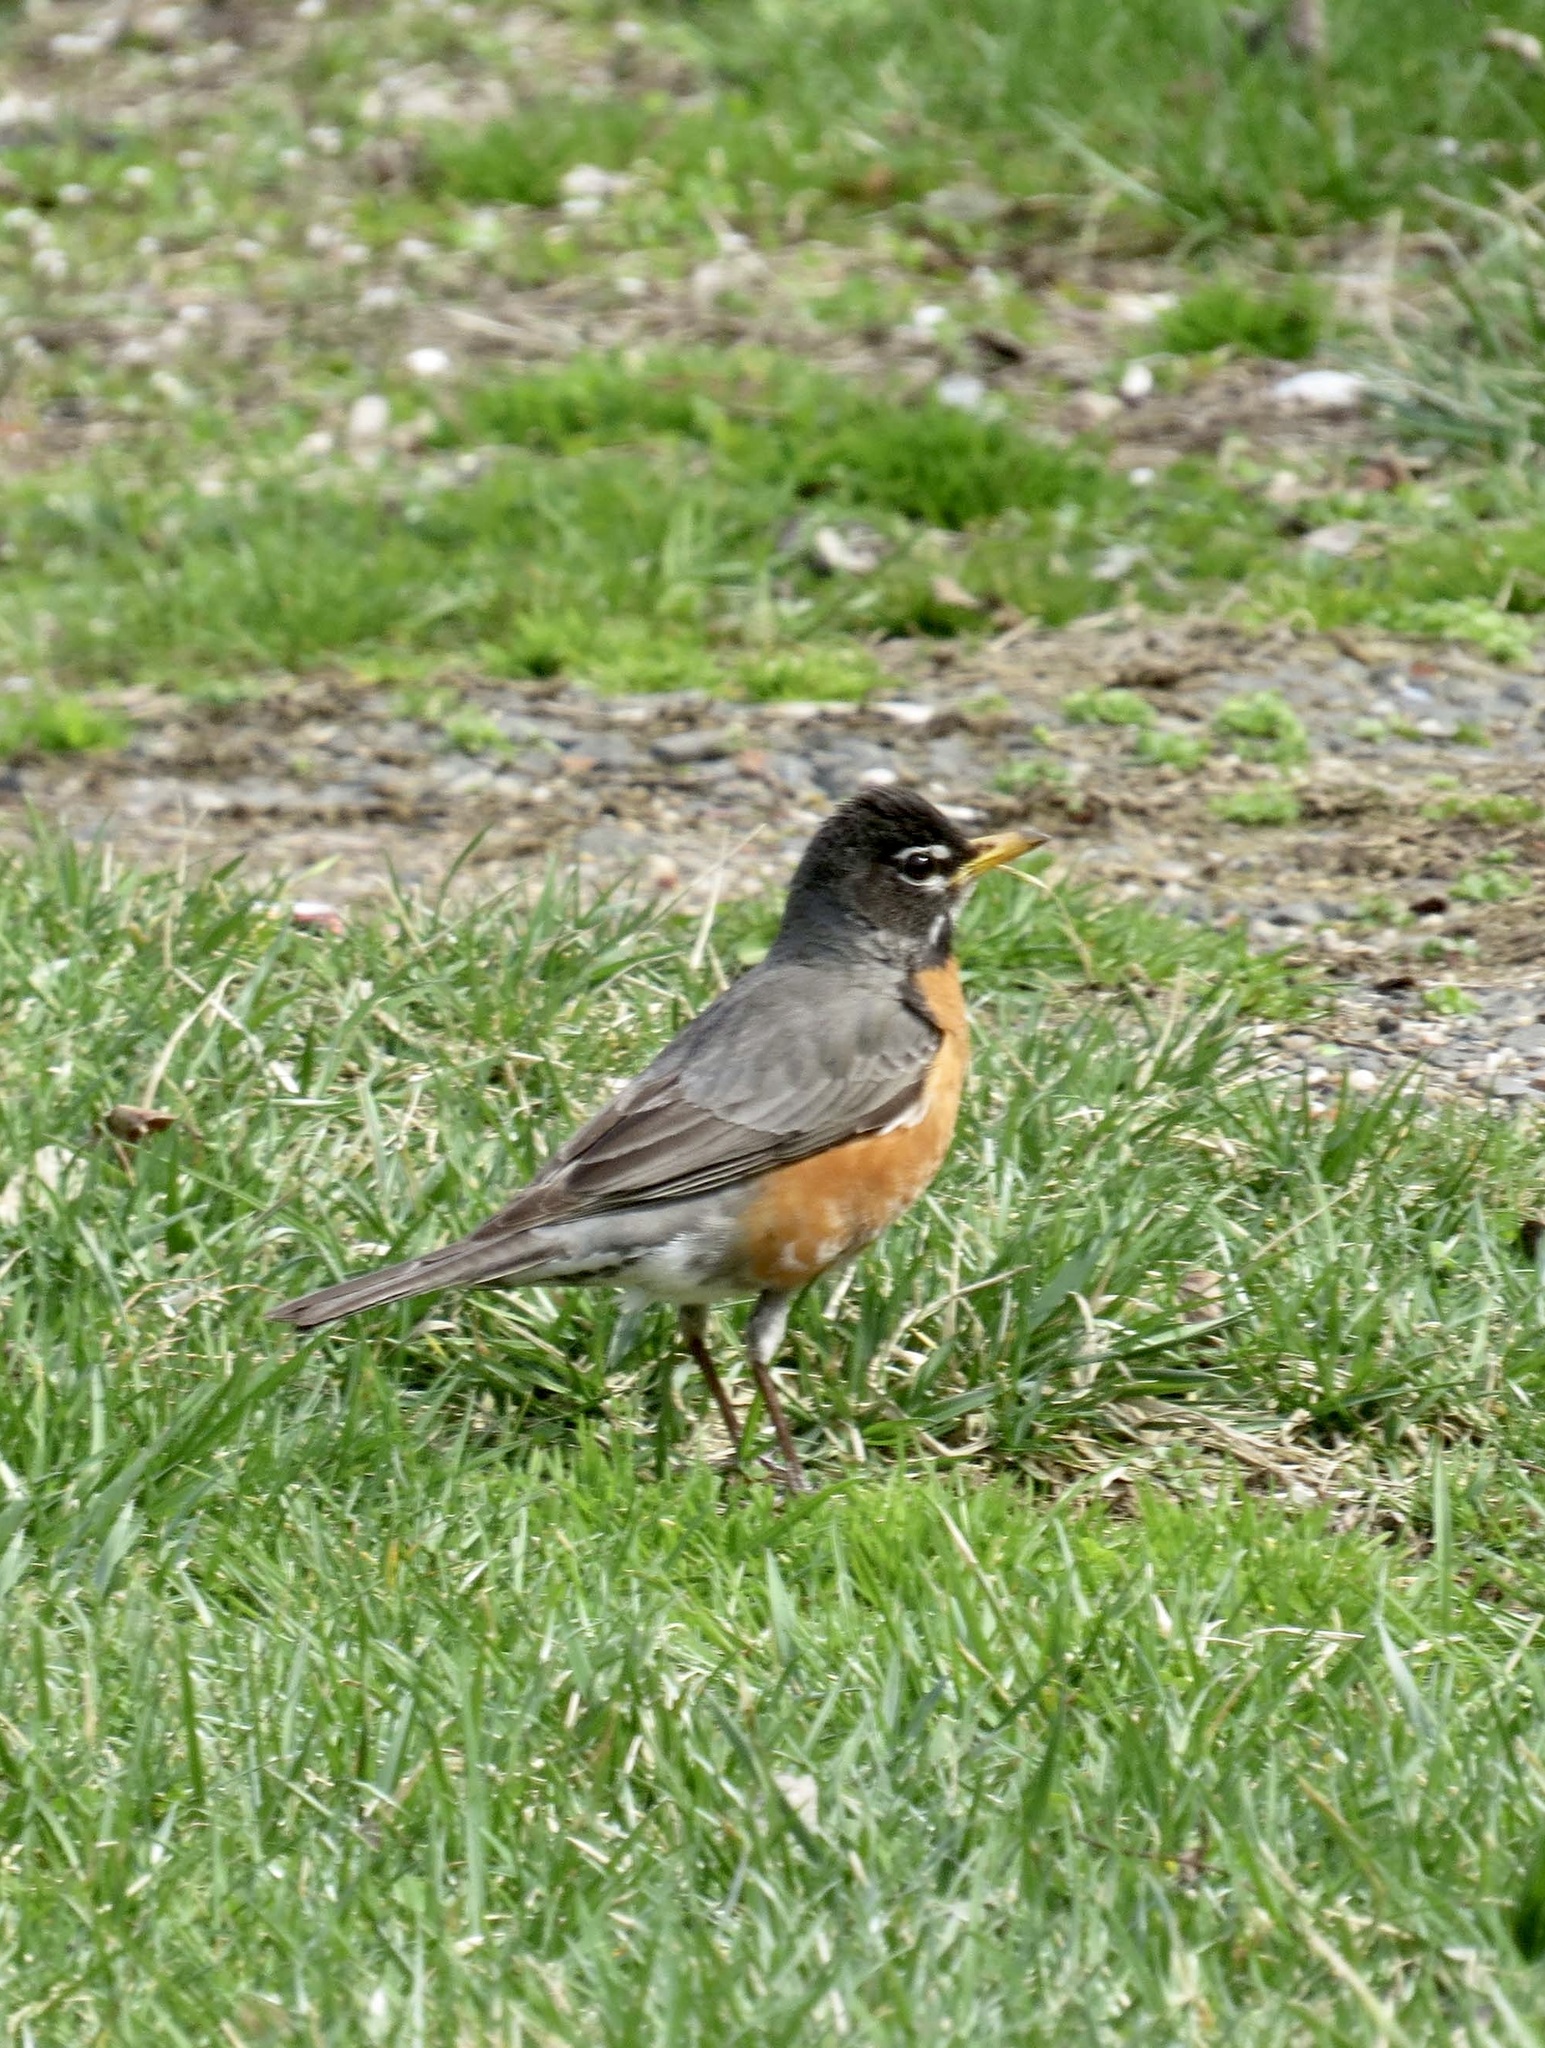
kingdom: Animalia
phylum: Chordata
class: Aves
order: Passeriformes
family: Turdidae
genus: Turdus
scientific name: Turdus migratorius
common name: American robin
